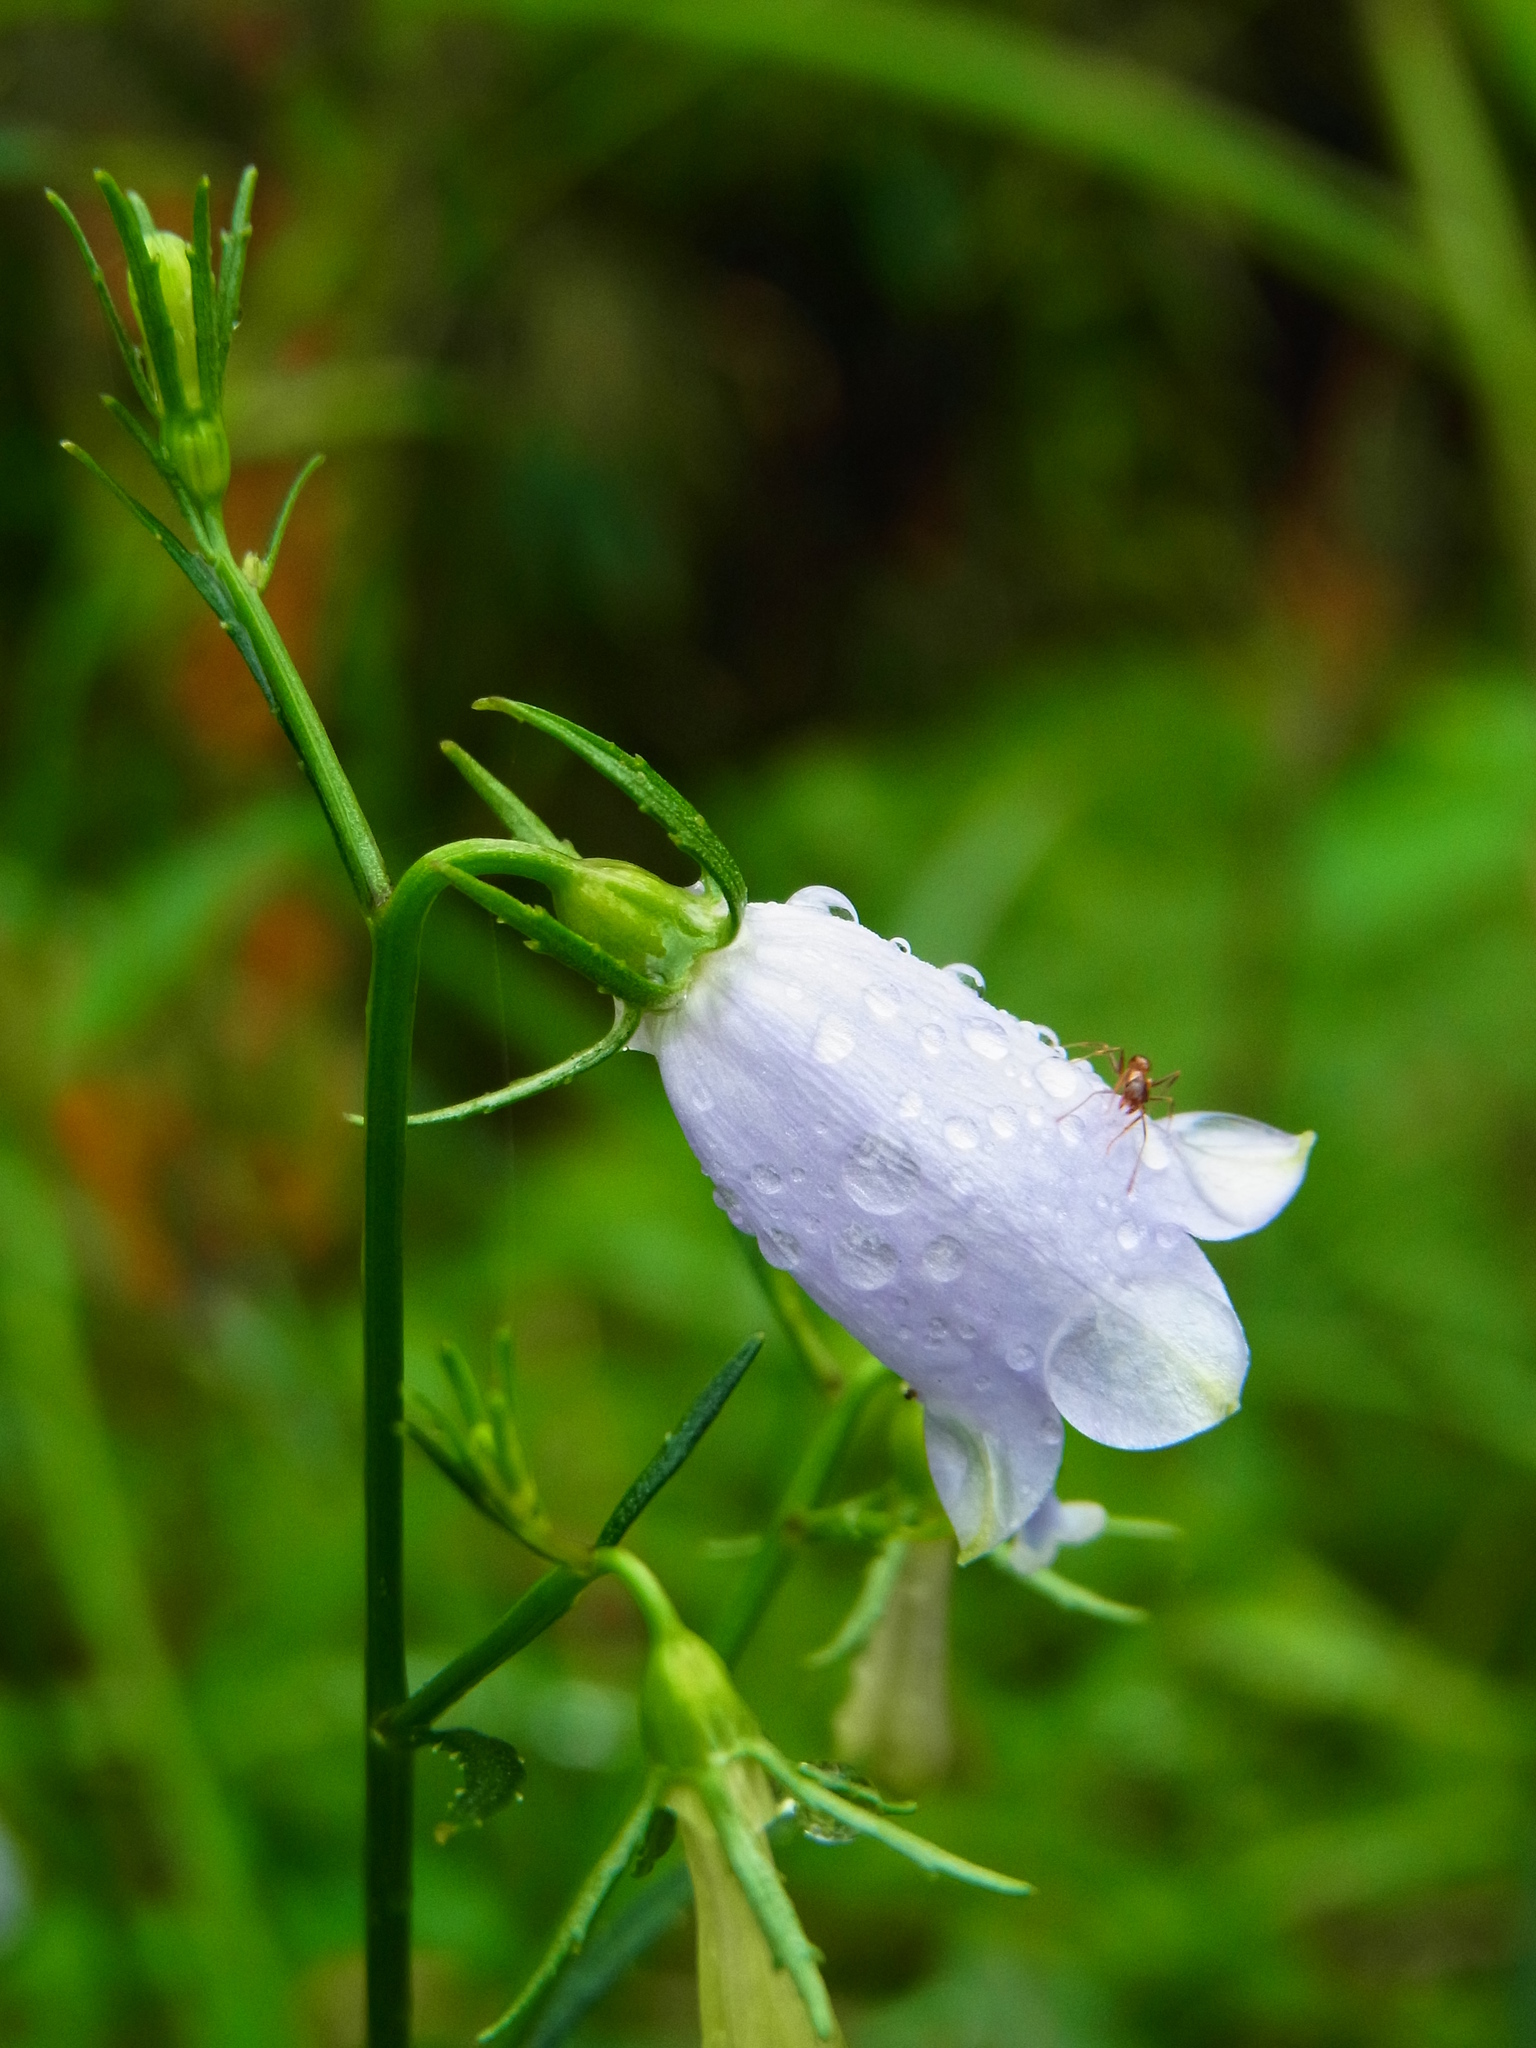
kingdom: Plantae
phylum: Tracheophyta
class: Magnoliopsida
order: Asterales
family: Campanulaceae
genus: Adenophora
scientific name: Adenophora triphylla
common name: Giant-bellflower
